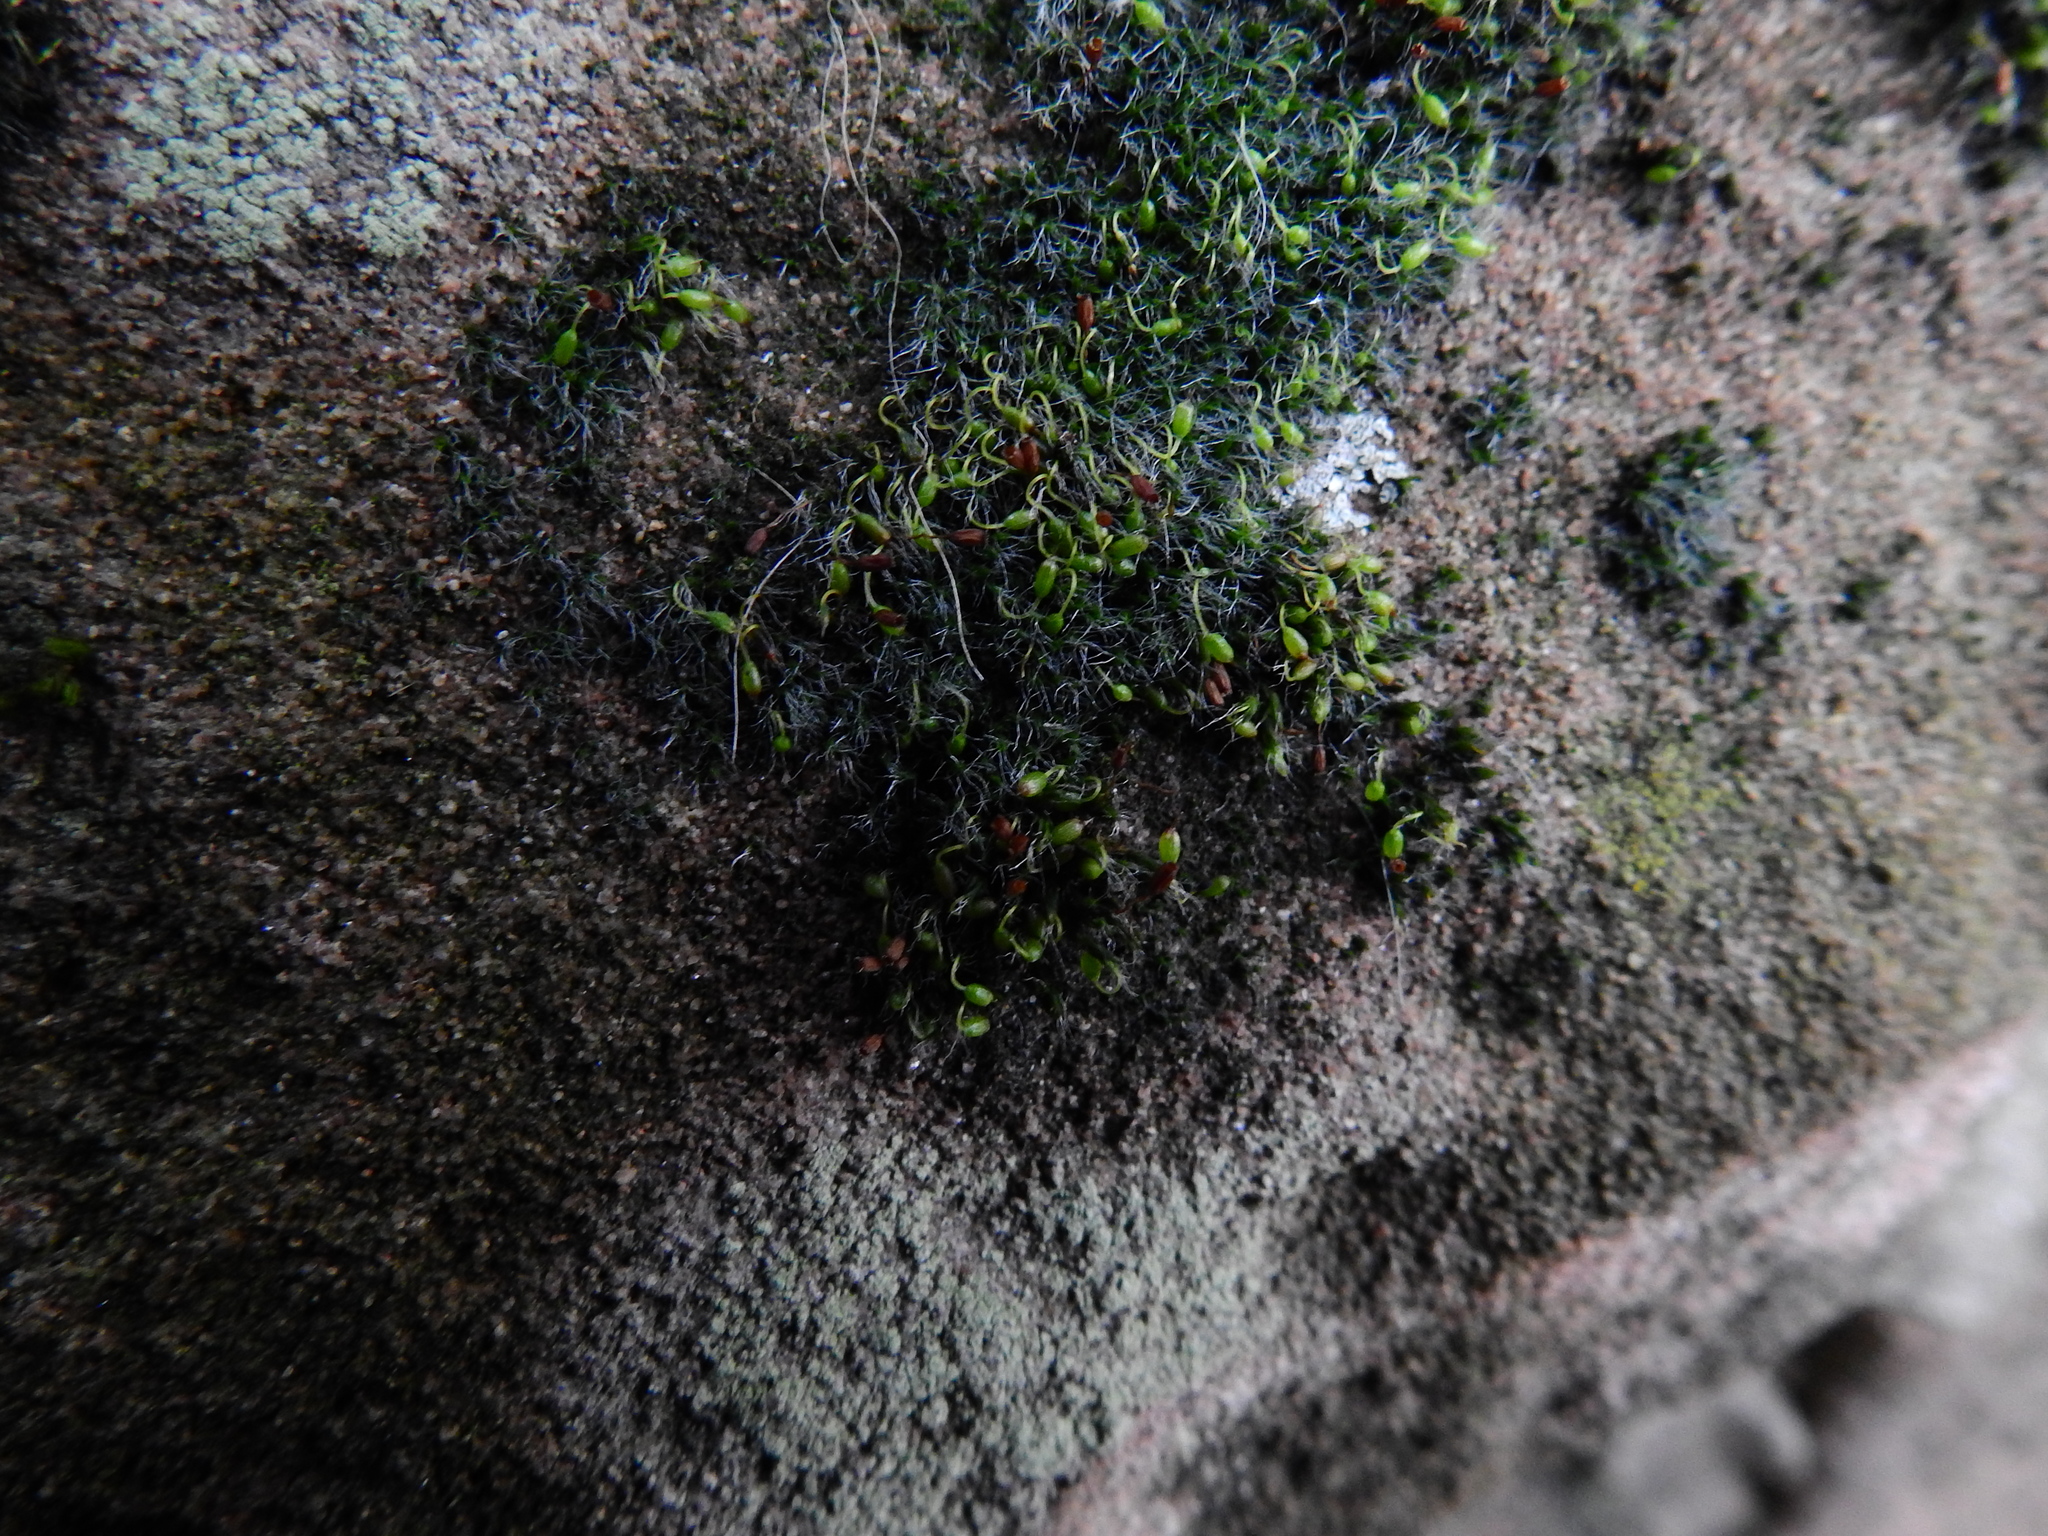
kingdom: Plantae
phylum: Bryophyta
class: Bryopsida
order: Grimmiales
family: Grimmiaceae
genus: Grimmia
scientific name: Grimmia pulvinata
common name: Grey-cushioned grimmia
